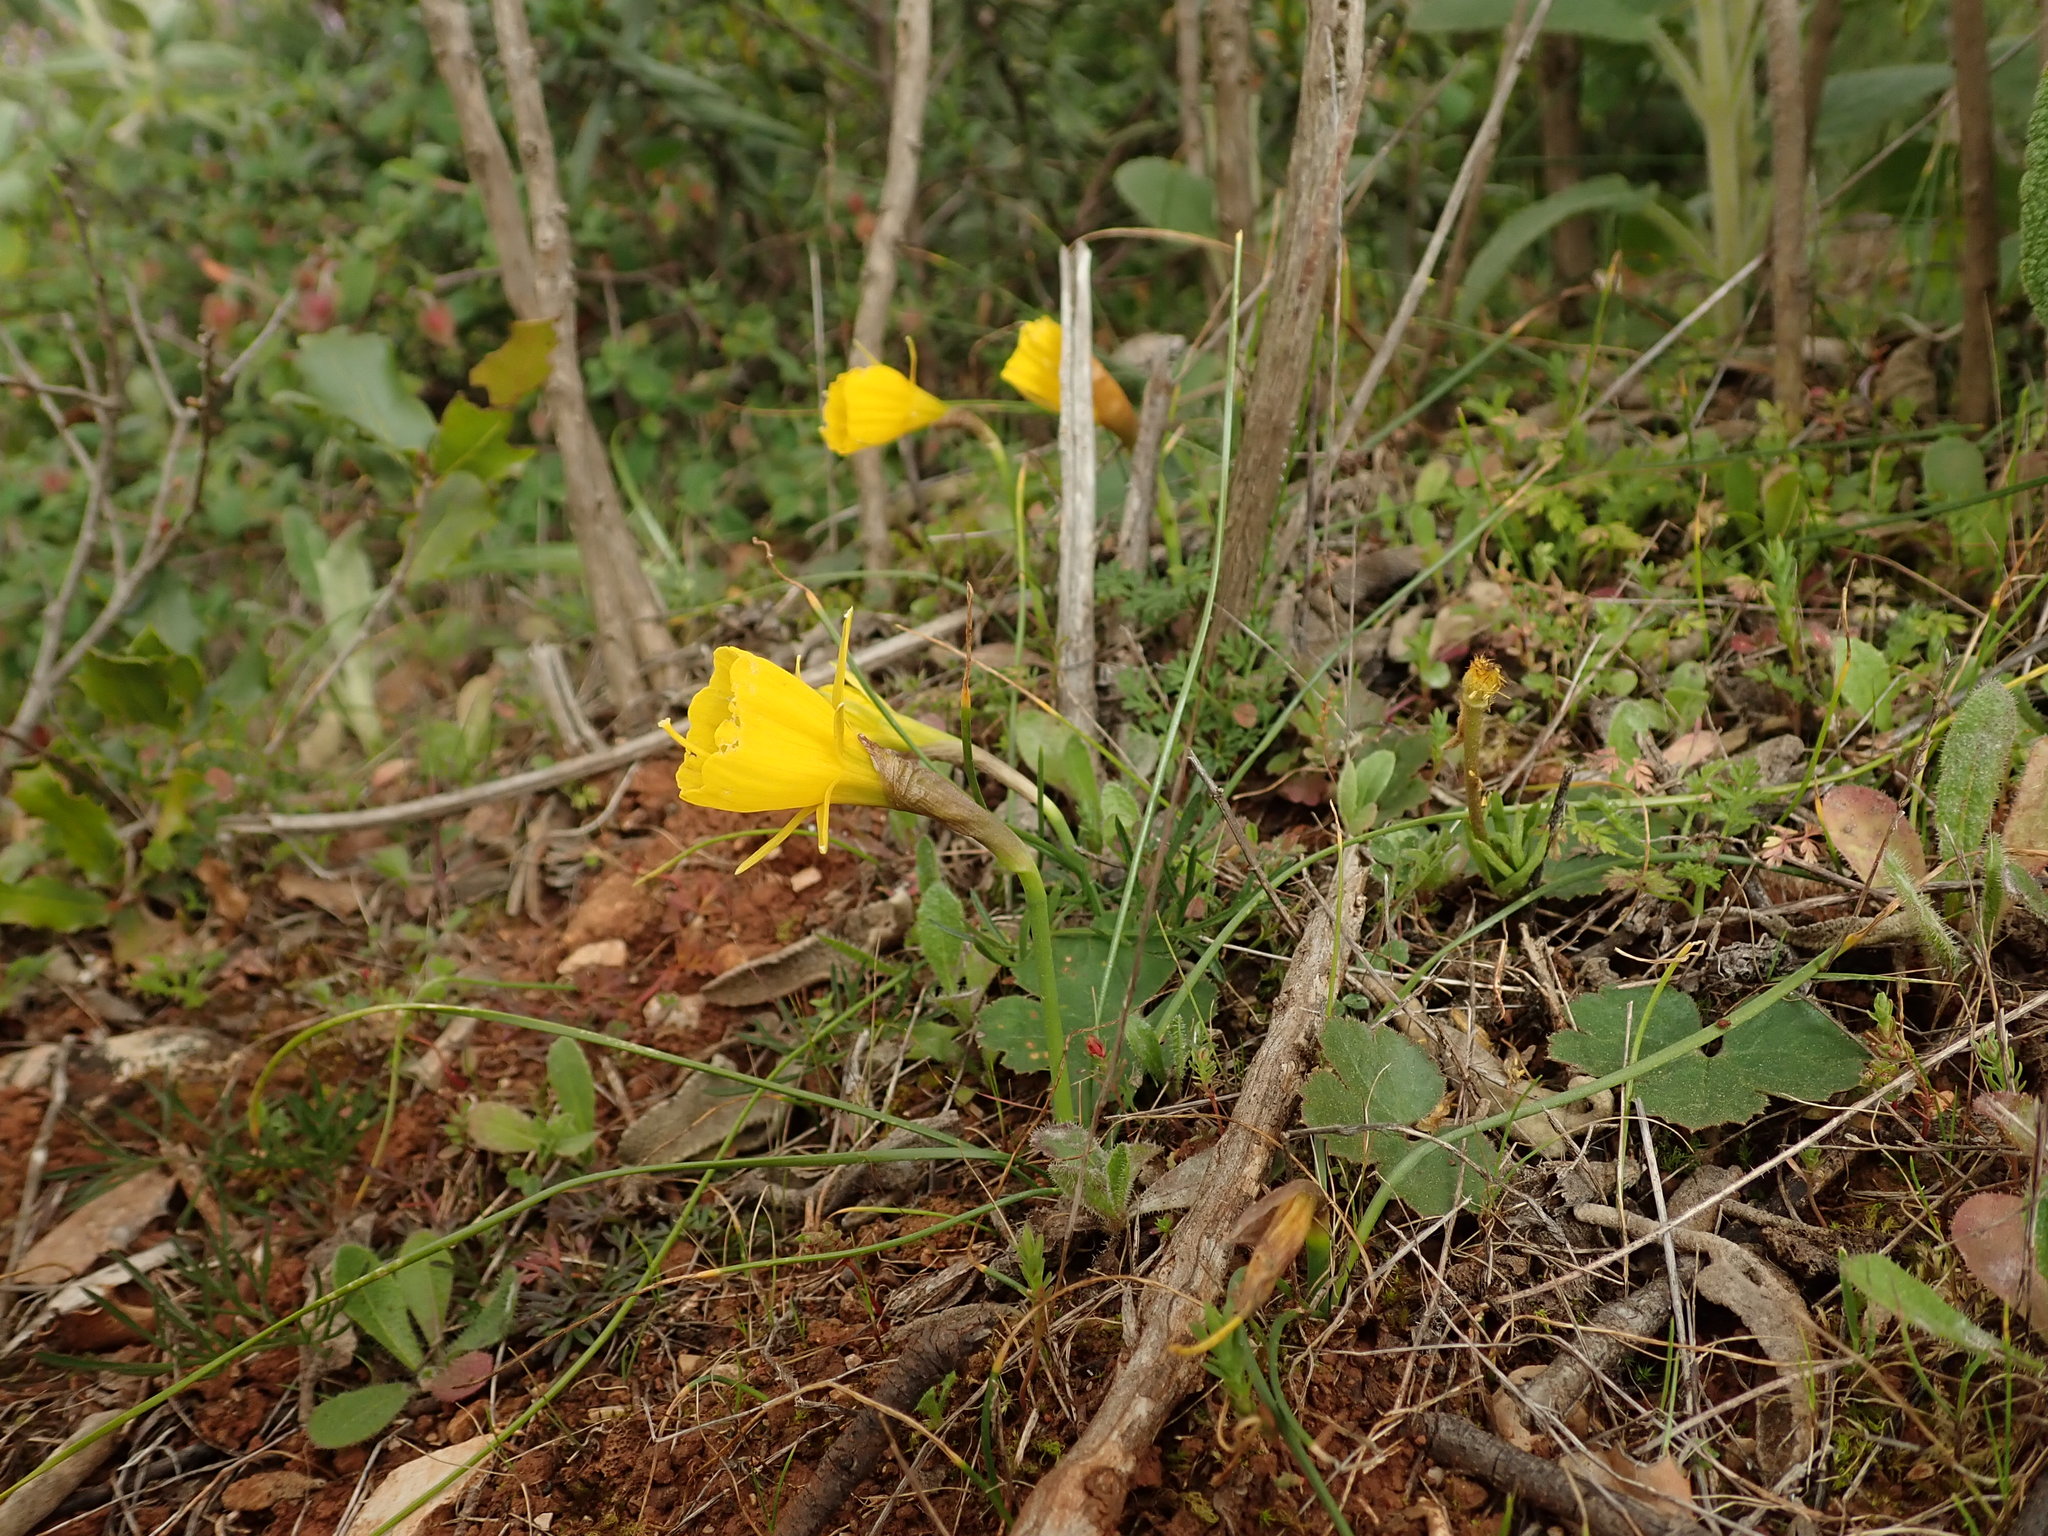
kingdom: Plantae
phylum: Tracheophyta
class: Liliopsida
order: Asparagales
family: Amaryllidaceae
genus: Narcissus
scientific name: Narcissus bulbocodium
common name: Hoop-petticoat daffodil
